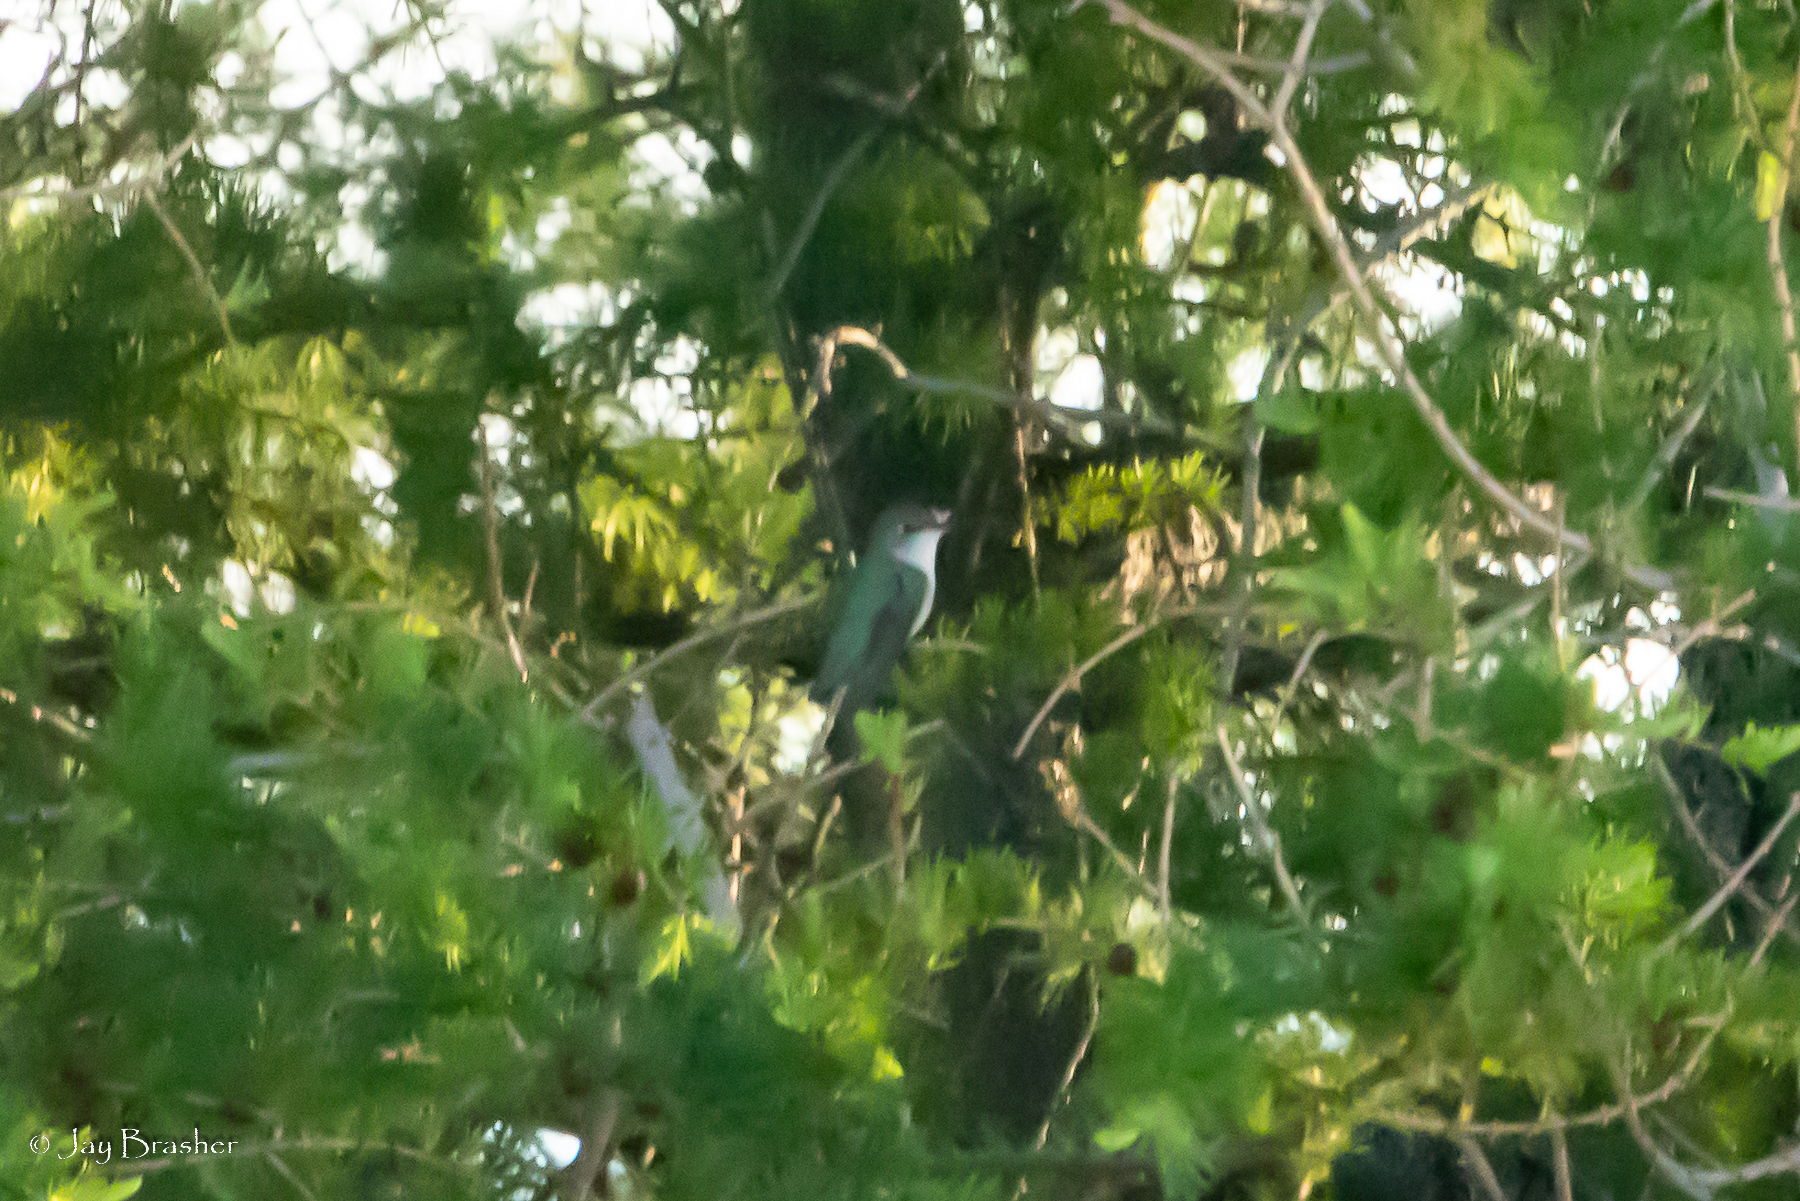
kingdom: Animalia
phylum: Chordata
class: Aves
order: Apodiformes
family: Trochilidae
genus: Archilochus
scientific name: Archilochus colubris
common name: Ruby-throated hummingbird
